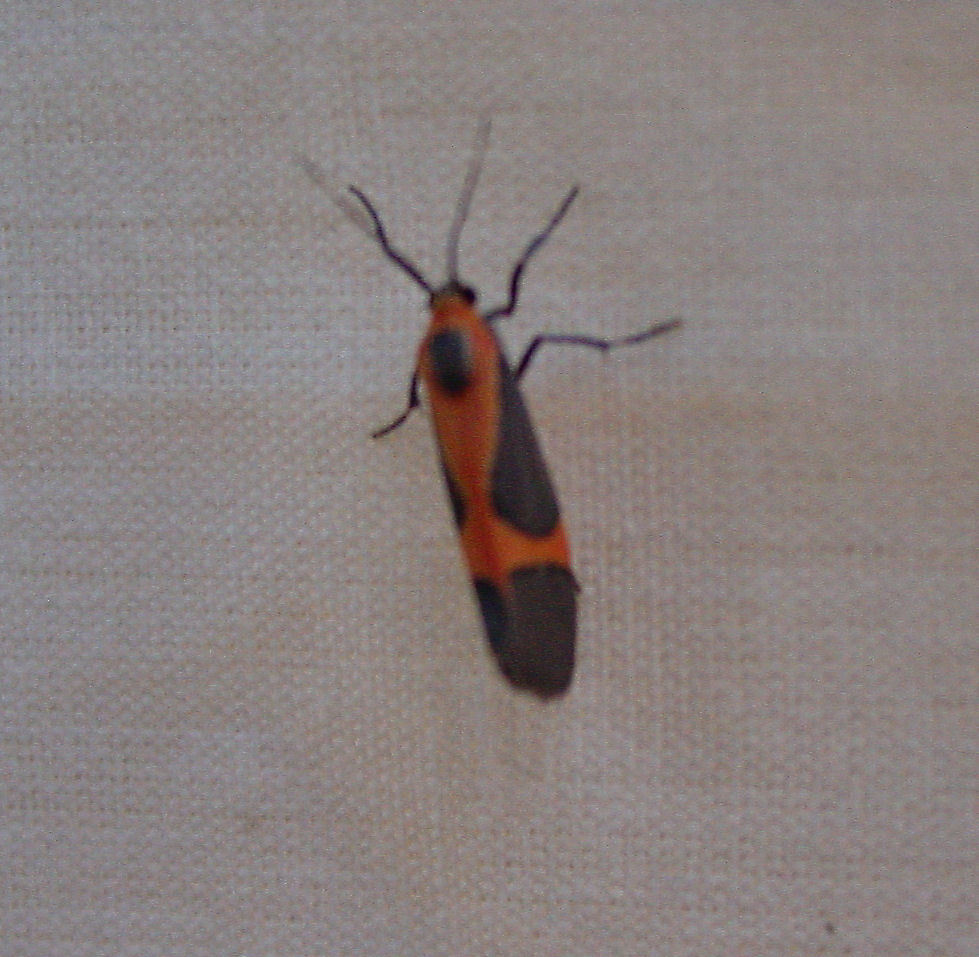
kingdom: Animalia
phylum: Arthropoda
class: Insecta
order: Lepidoptera
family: Erebidae
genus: Cisthene
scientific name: Cisthene martini
